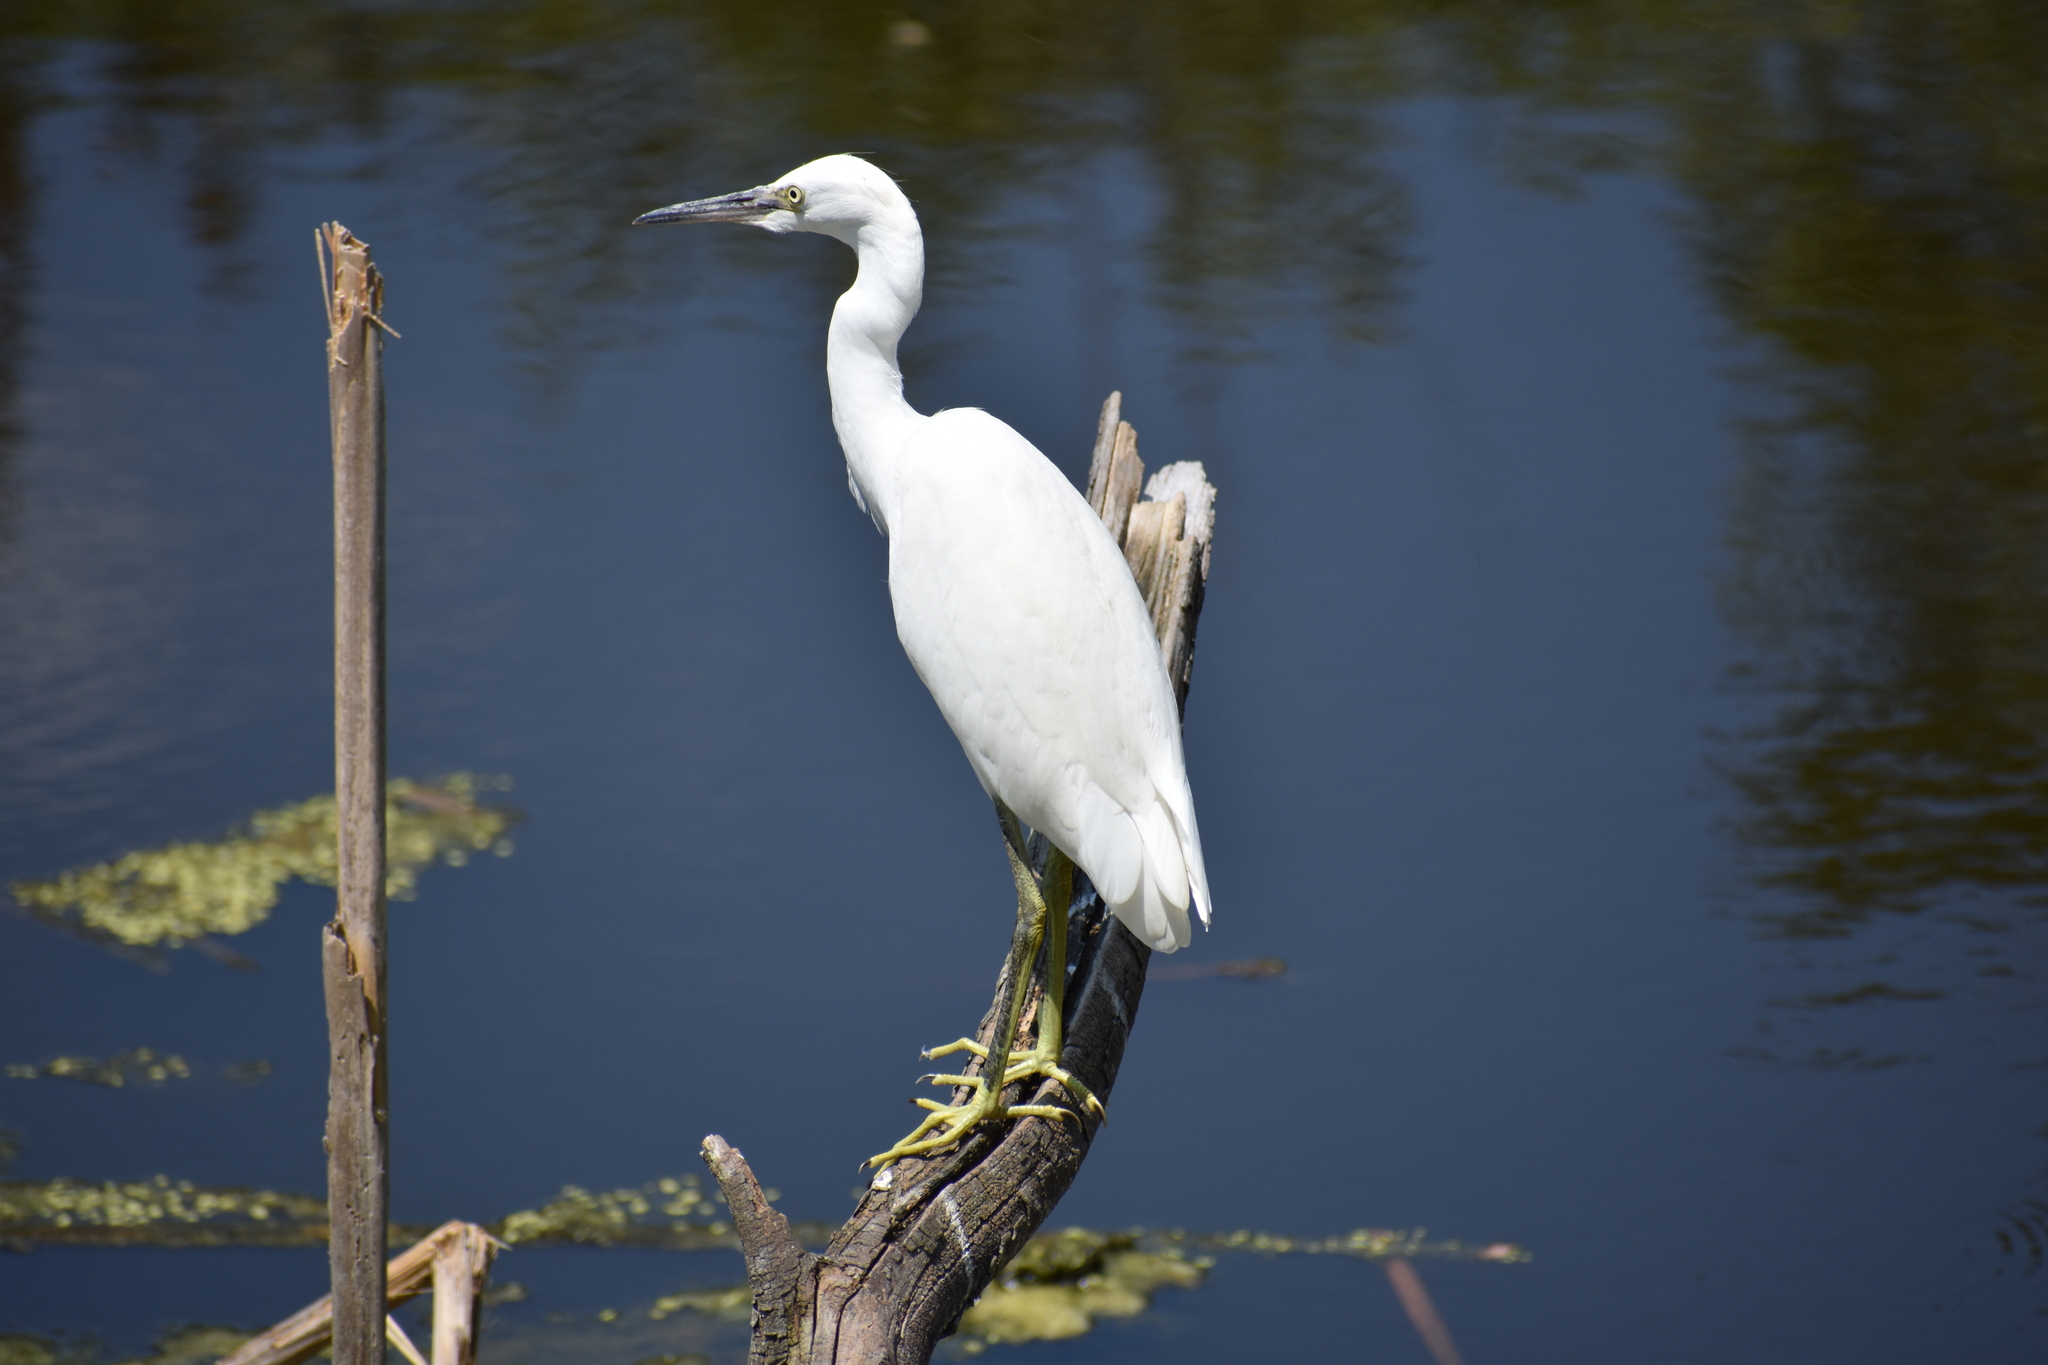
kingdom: Animalia
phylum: Chordata
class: Aves
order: Pelecaniformes
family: Ardeidae
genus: Egretta
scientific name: Egretta thula
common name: Snowy egret
